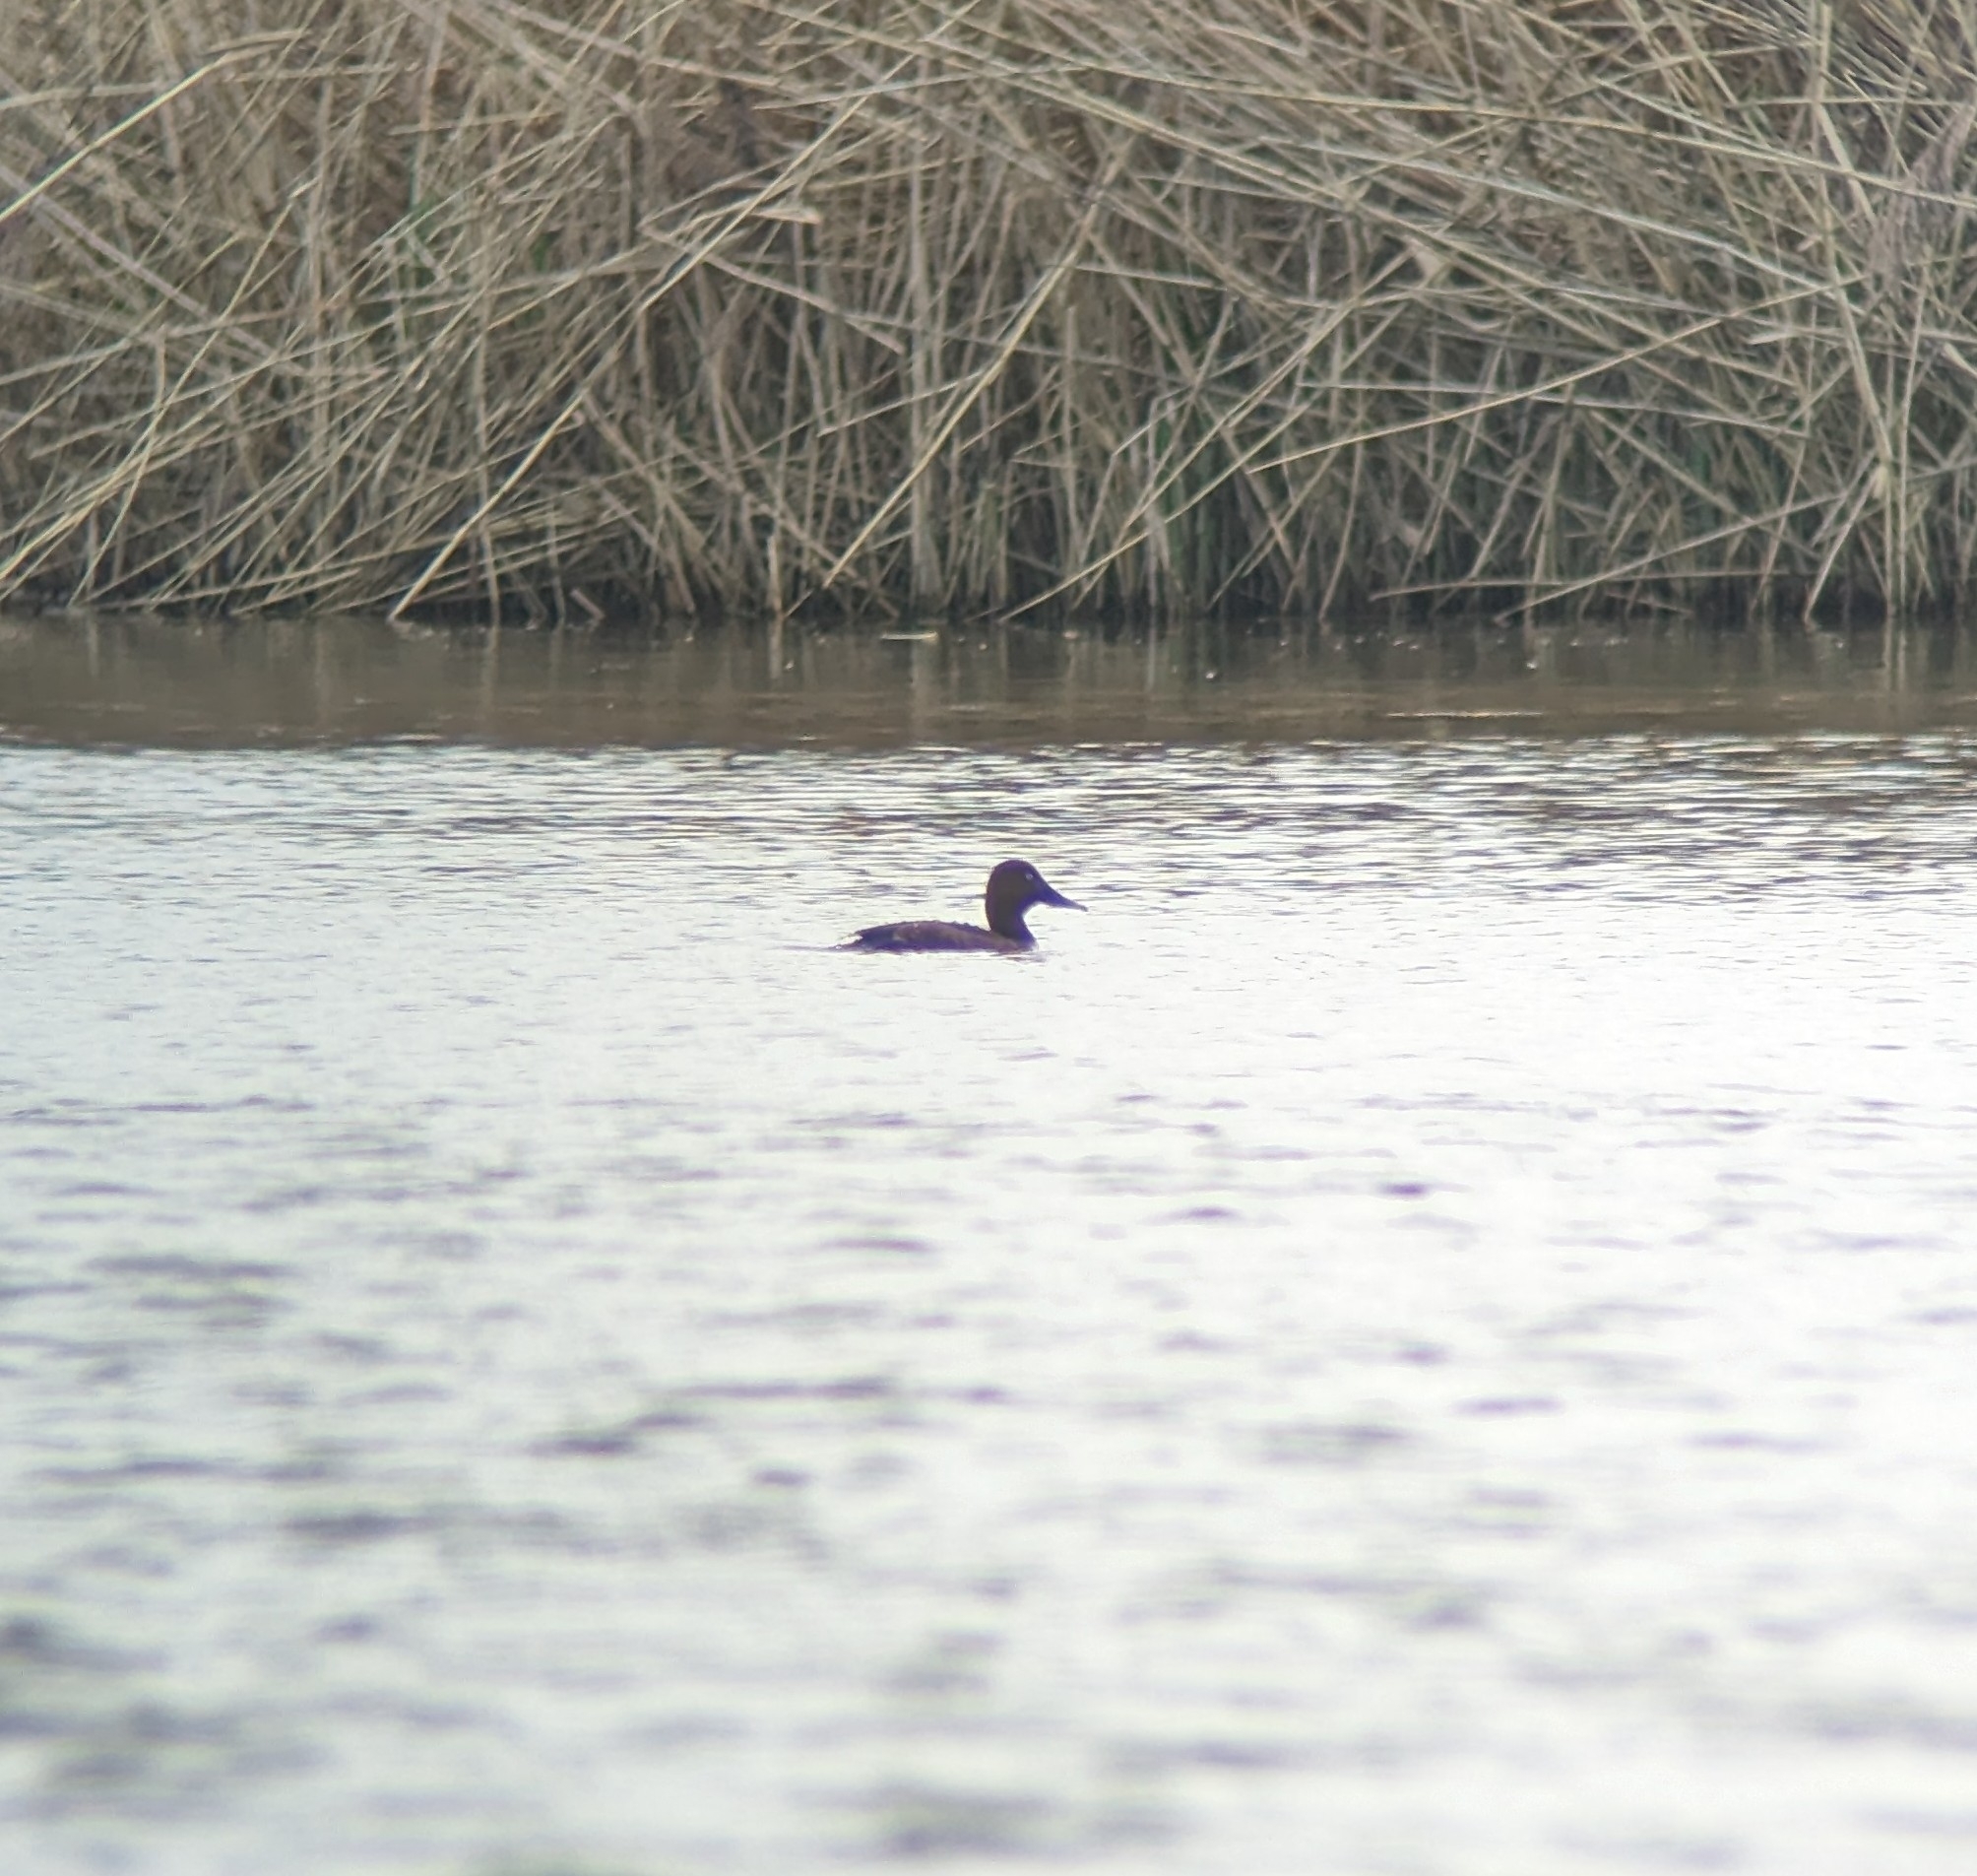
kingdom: Animalia
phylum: Chordata
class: Aves
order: Anseriformes
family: Anatidae
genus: Aythya
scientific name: Aythya nyroca
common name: Ferruginous duck
